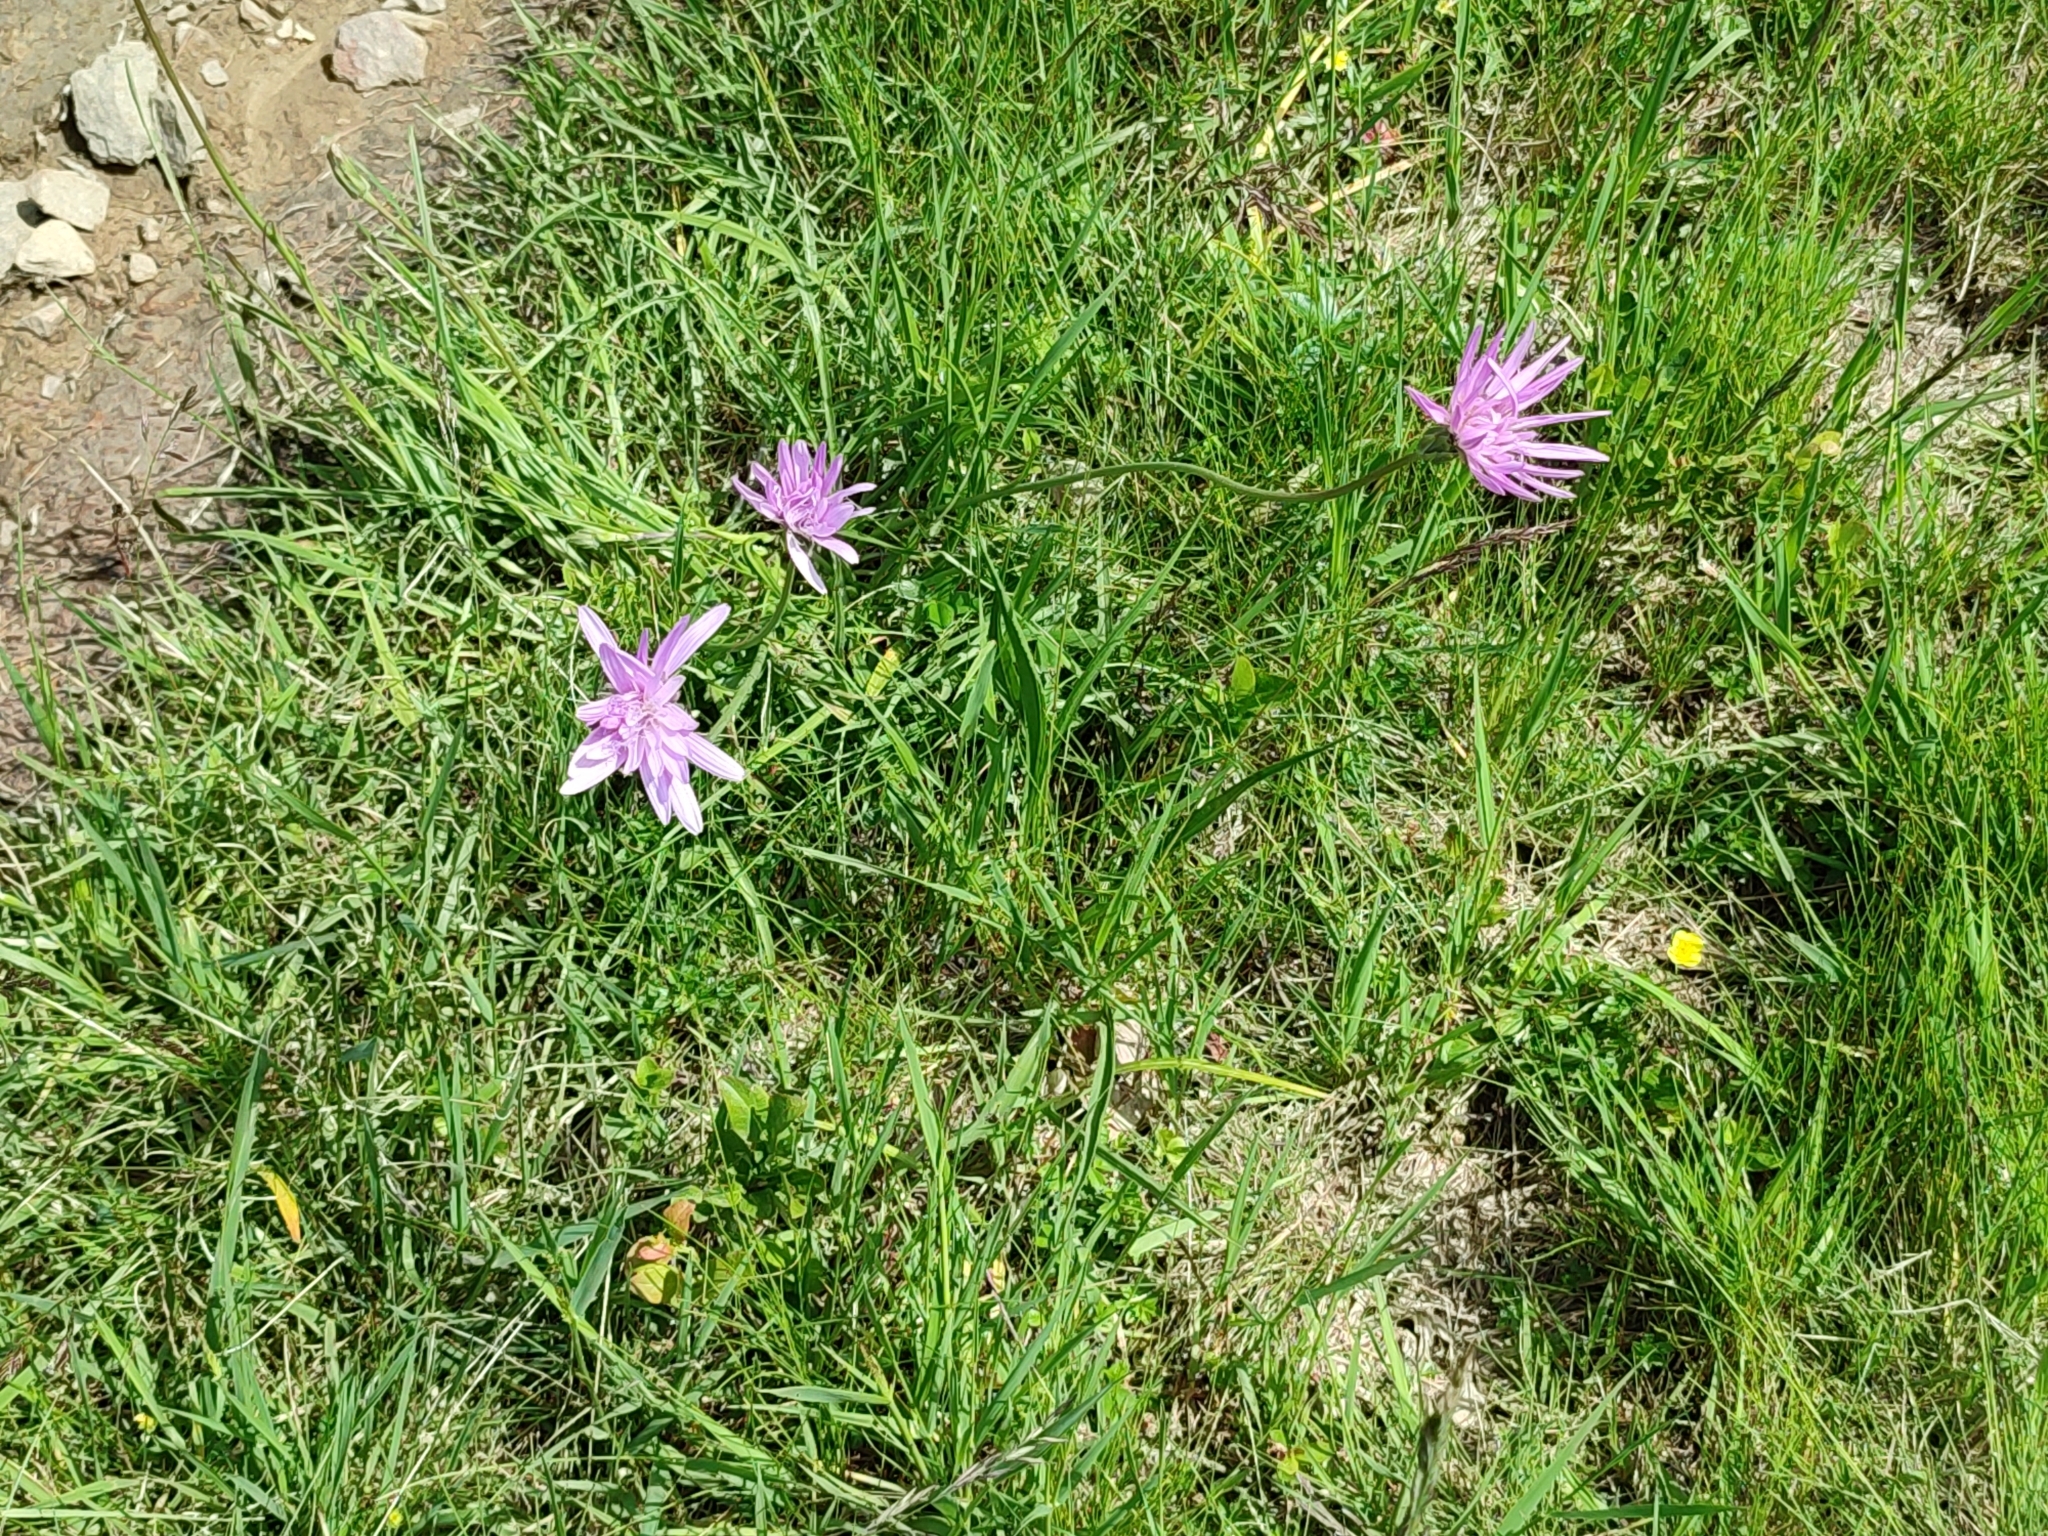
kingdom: Plantae
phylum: Tracheophyta
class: Magnoliopsida
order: Asterales
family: Asteraceae
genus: Scorzonera
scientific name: Scorzonera rosea
